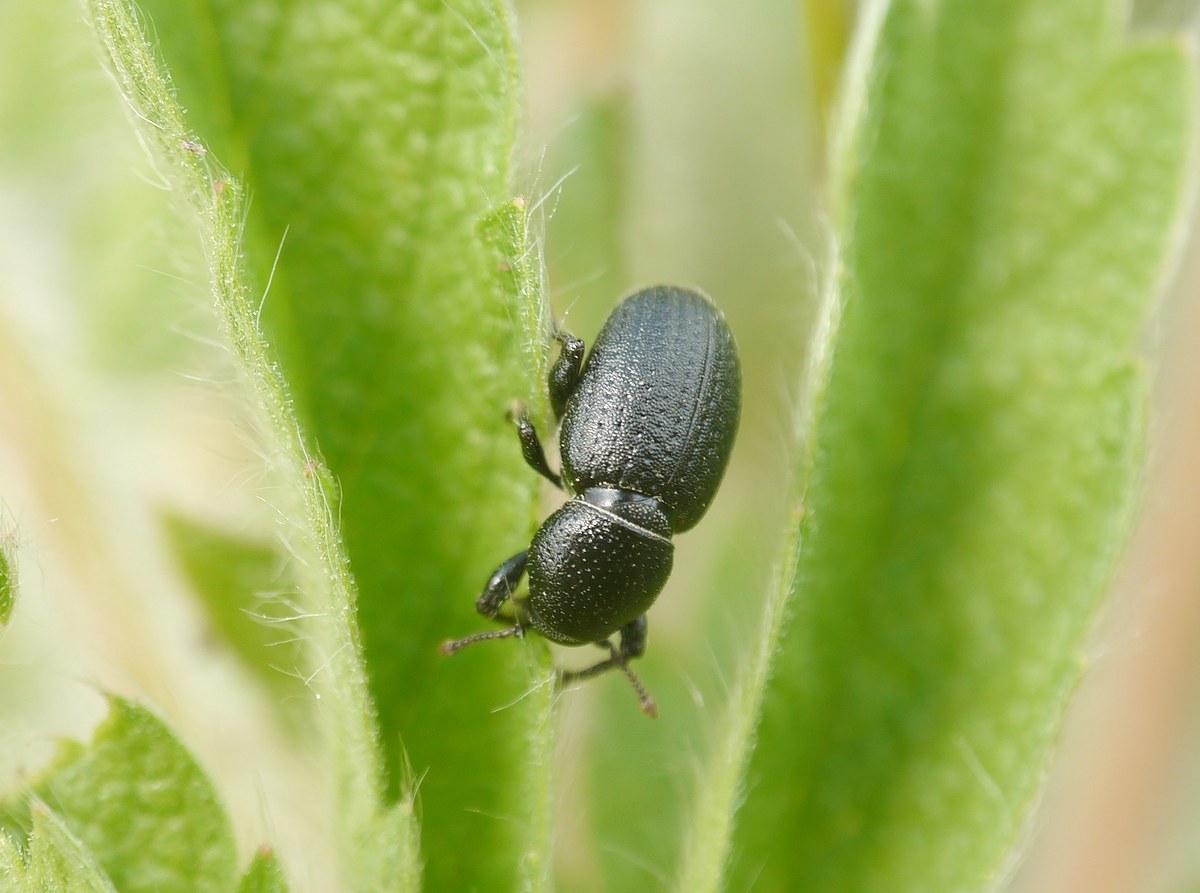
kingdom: Animalia
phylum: Arthropoda
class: Insecta
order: Coleoptera
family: Curculionidae
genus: Psallidium
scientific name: Psallidium maxillosum
